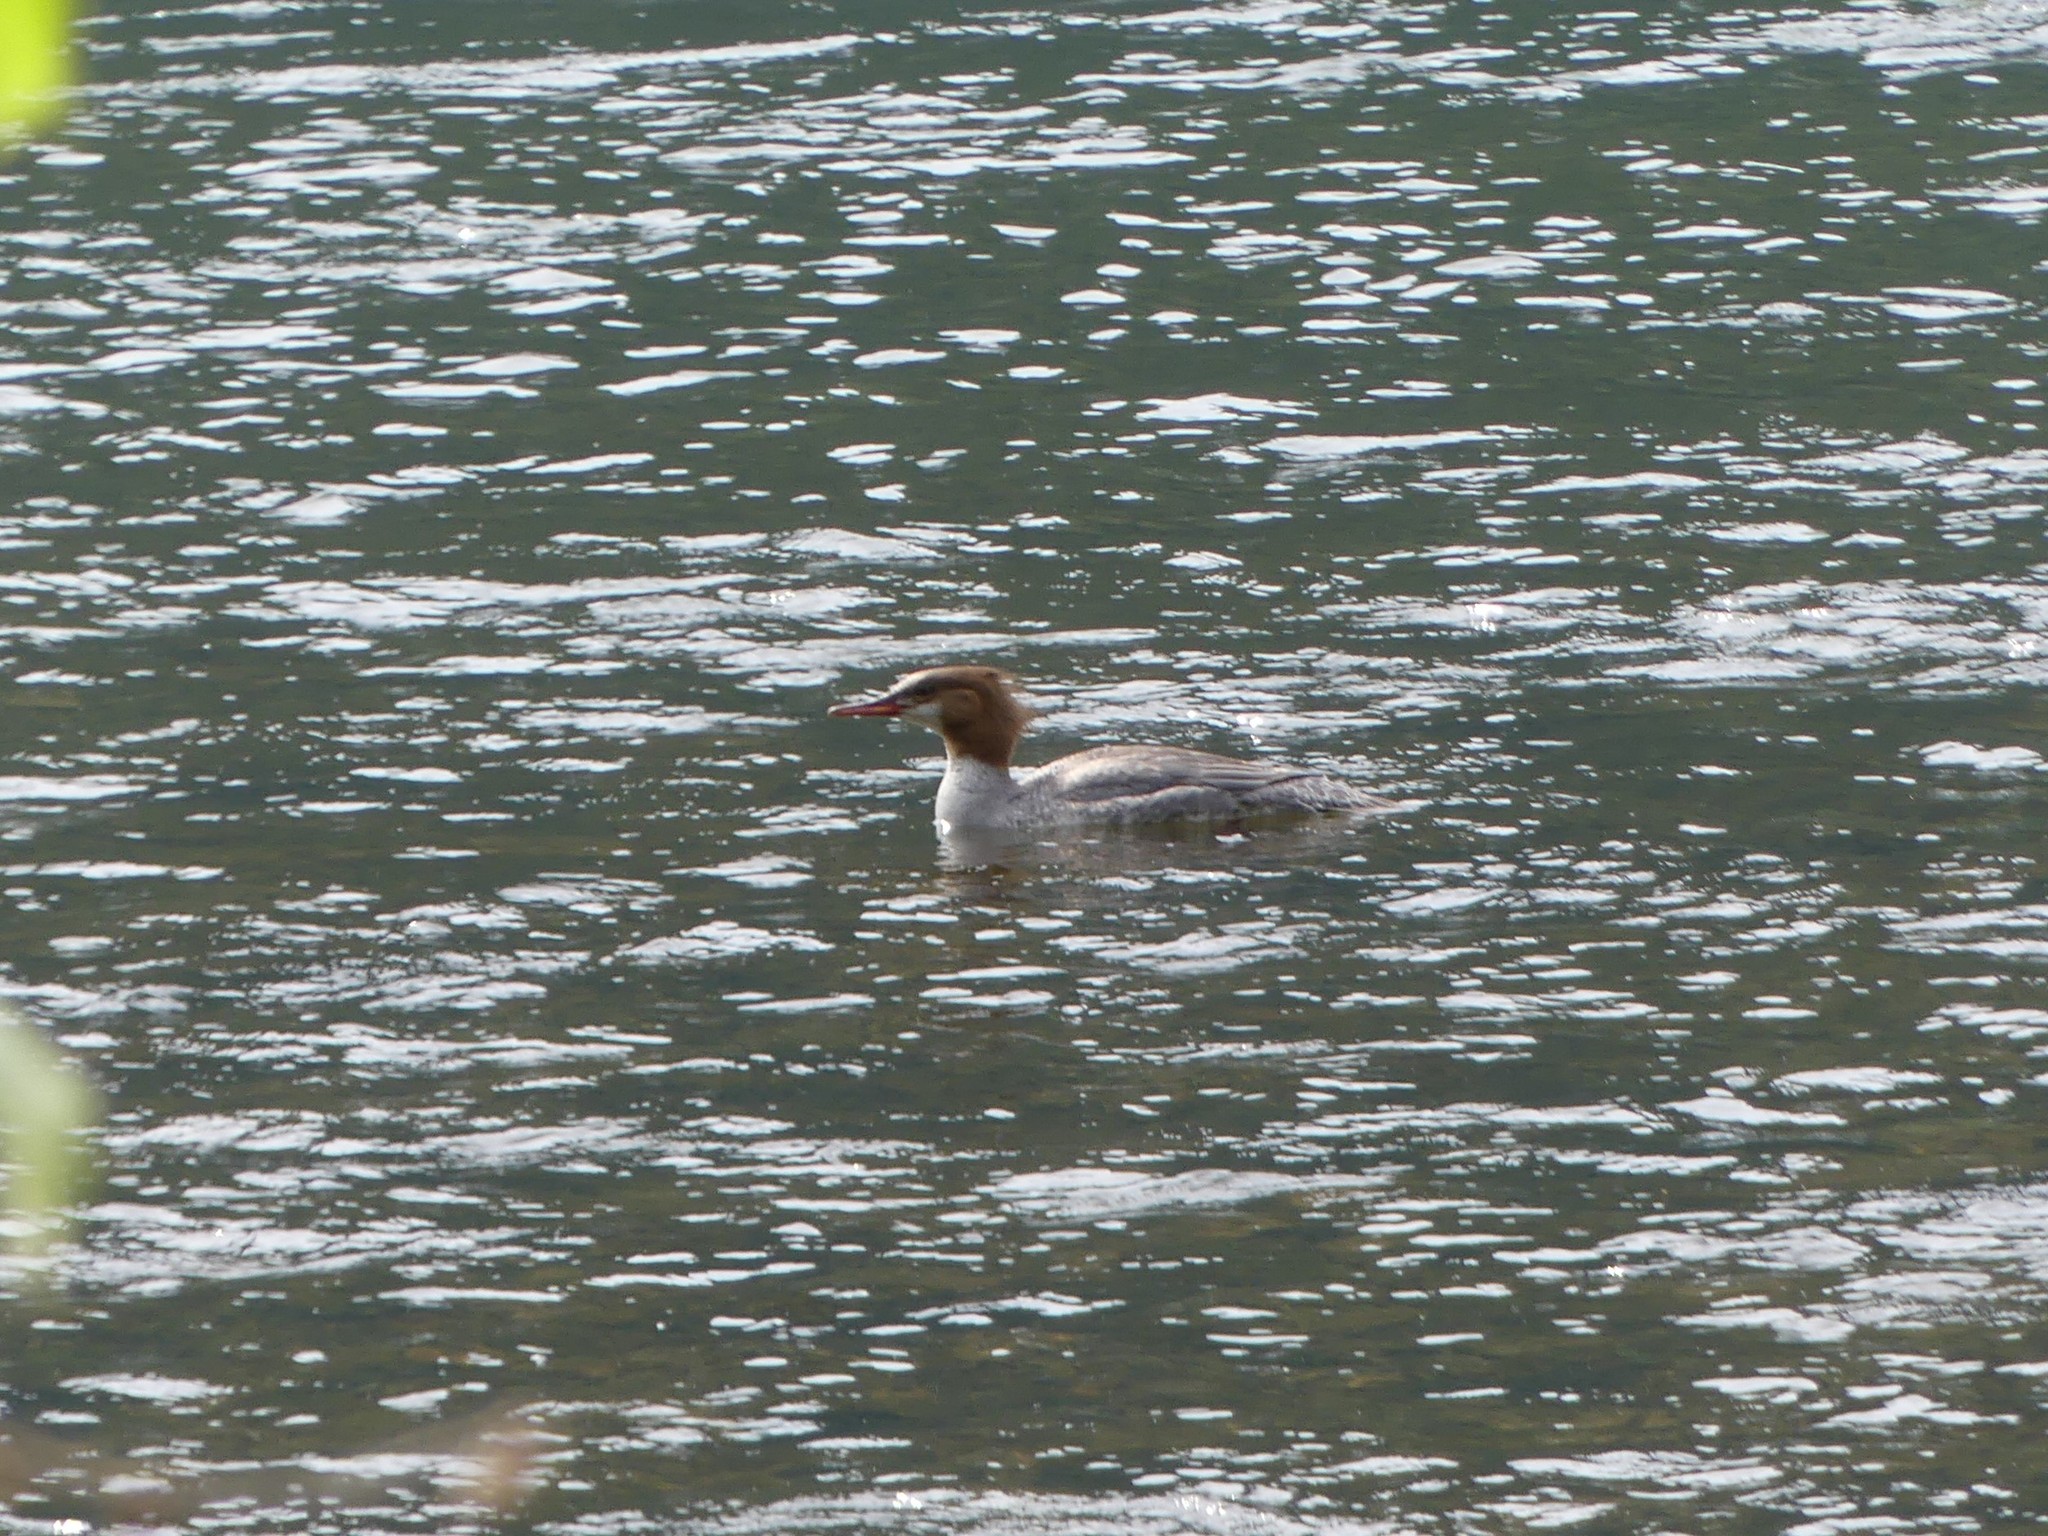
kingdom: Animalia
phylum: Chordata
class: Aves
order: Anseriformes
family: Anatidae
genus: Mergus
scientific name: Mergus merganser
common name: Common merganser
